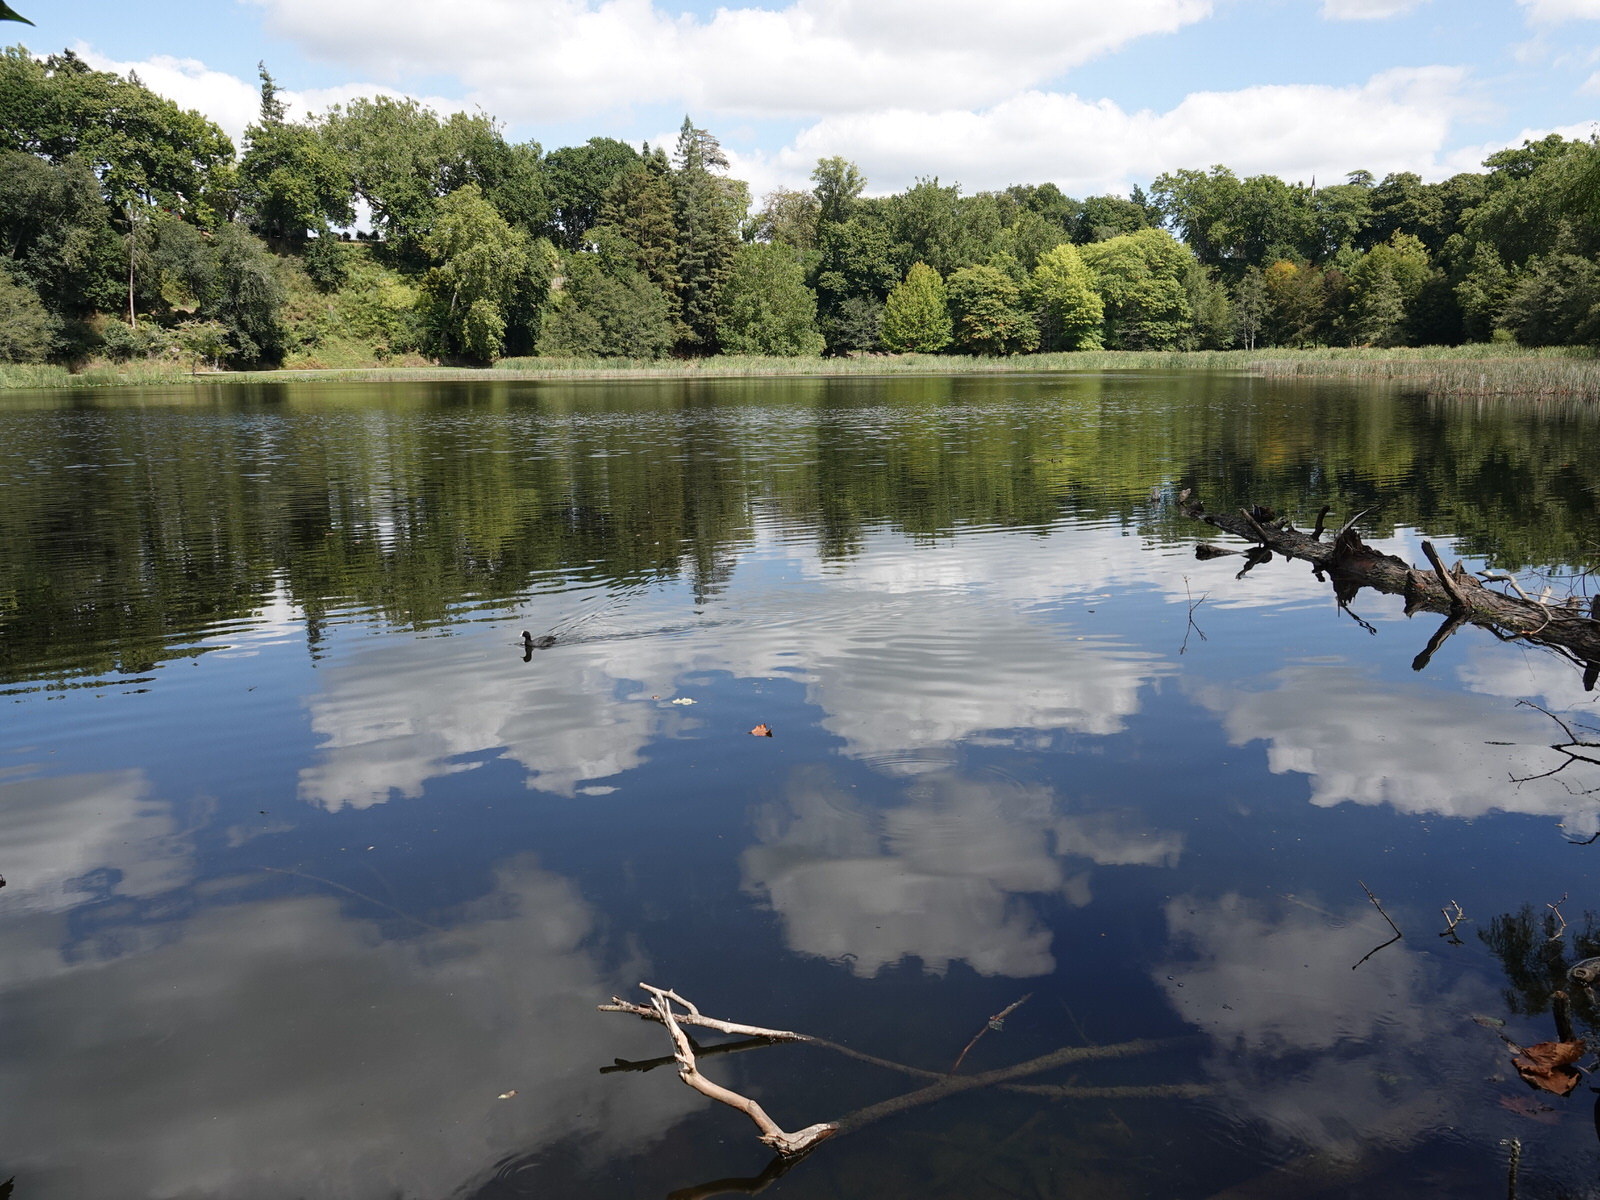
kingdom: Animalia
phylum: Chordata
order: Cyprinodontiformes
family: Poeciliidae
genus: Gambusia
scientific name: Gambusia affinis
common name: Mosquitofish
